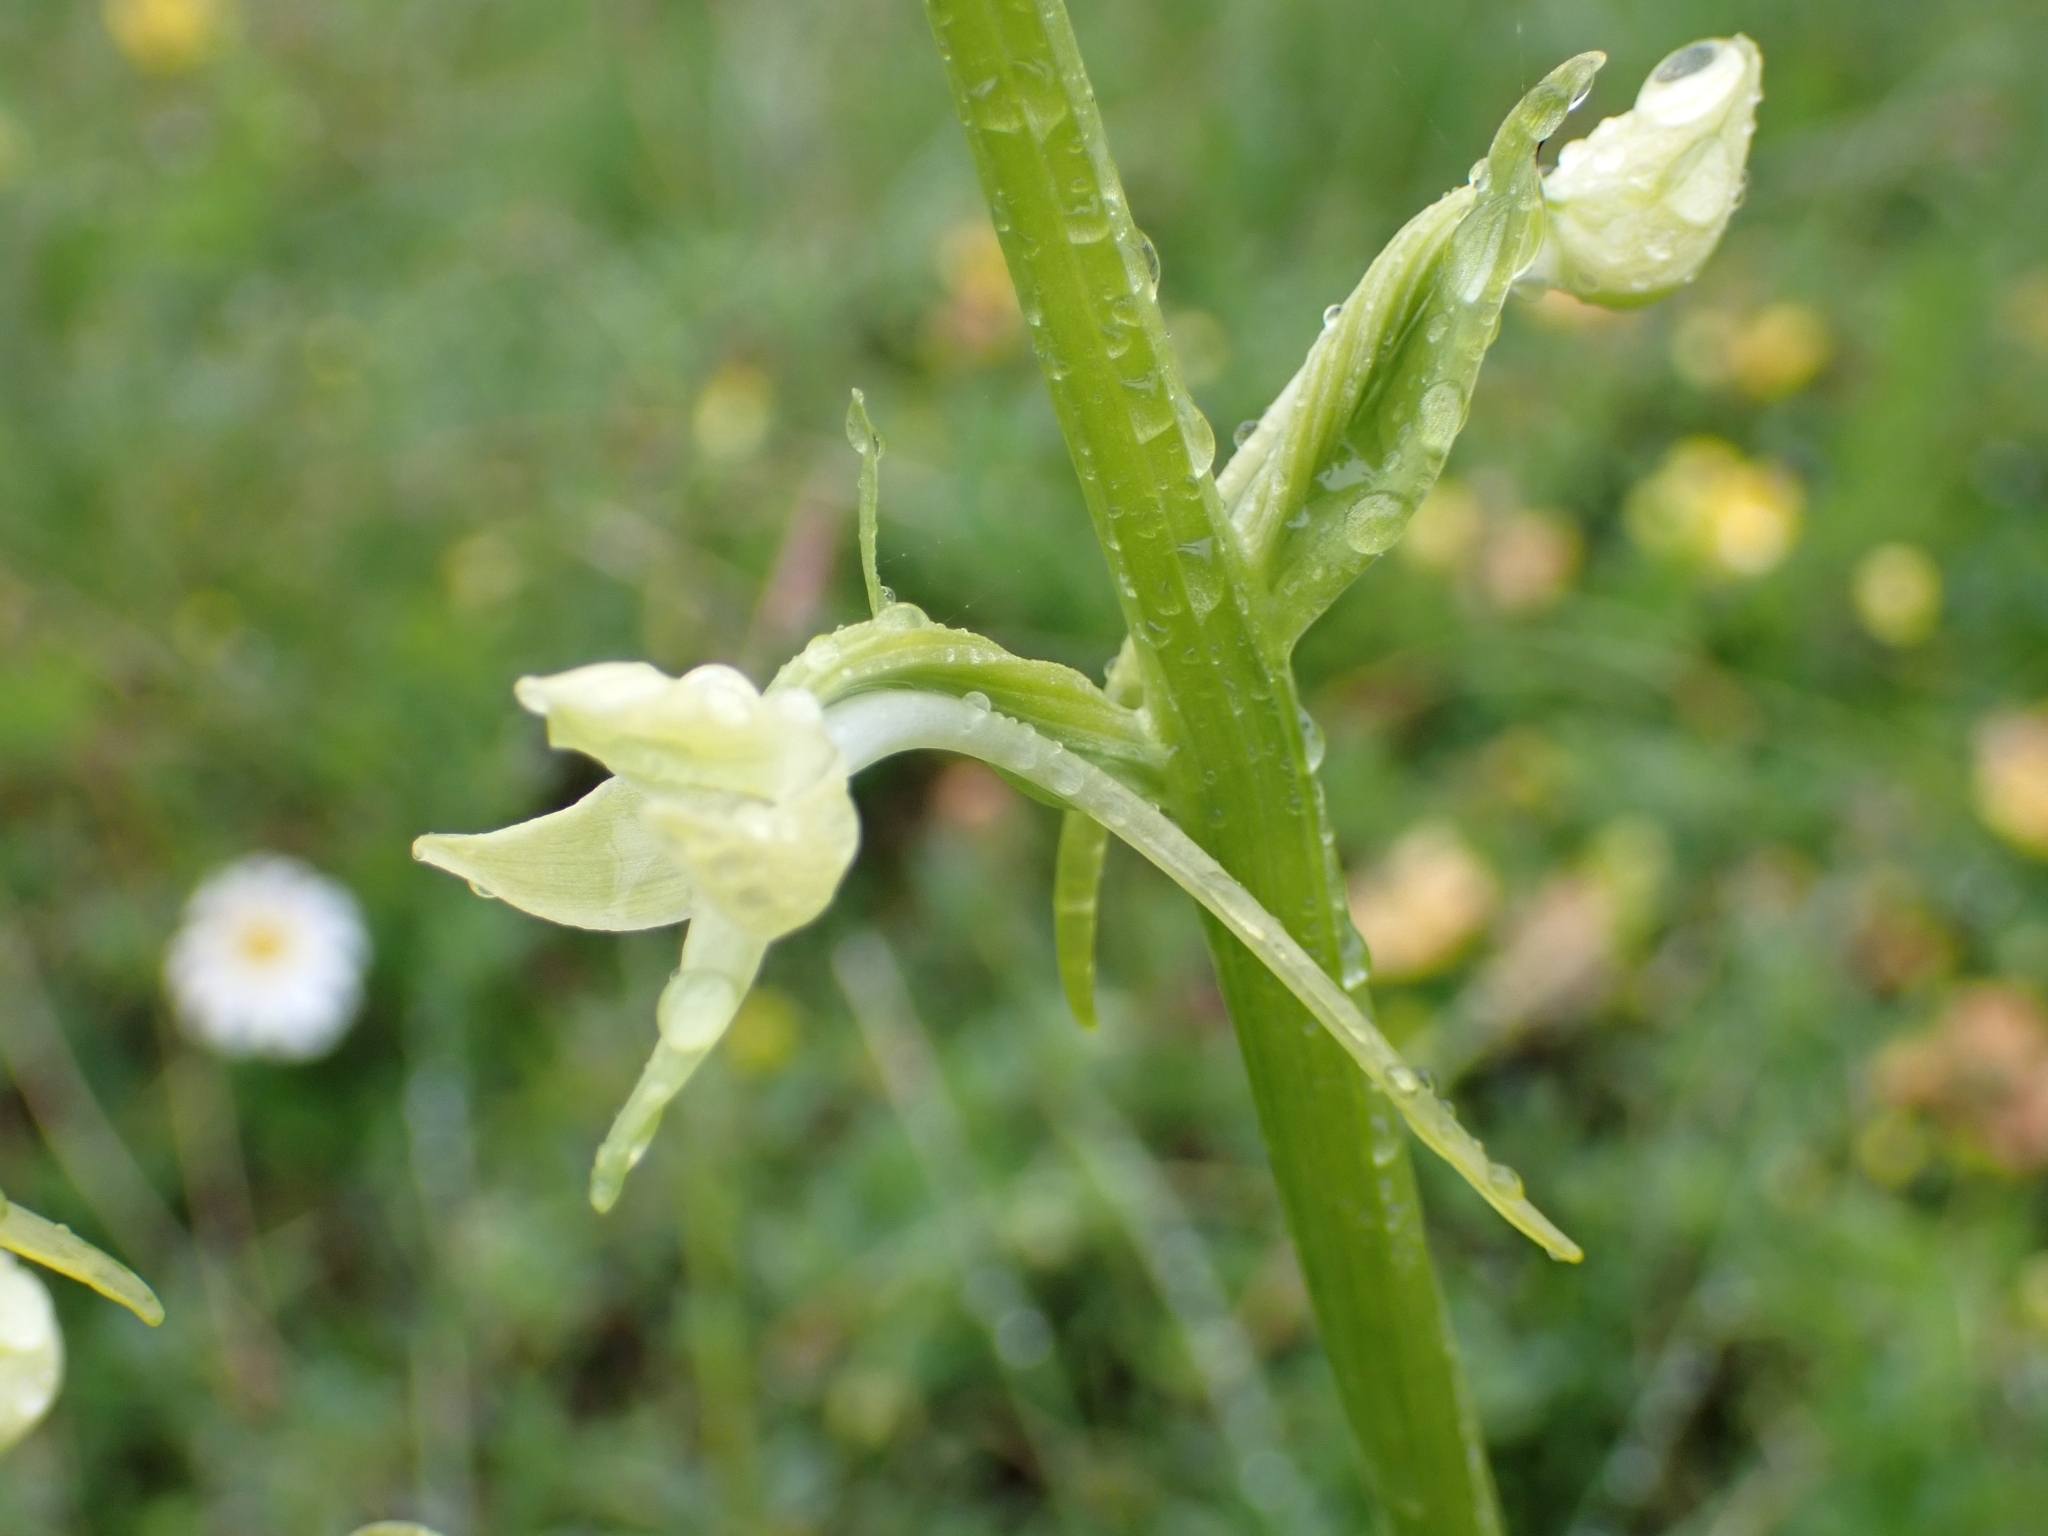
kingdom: Plantae
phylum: Tracheophyta
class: Liliopsida
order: Asparagales
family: Orchidaceae
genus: Platanthera
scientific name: Platanthera bifolia
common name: Lesser butterfly-orchid
